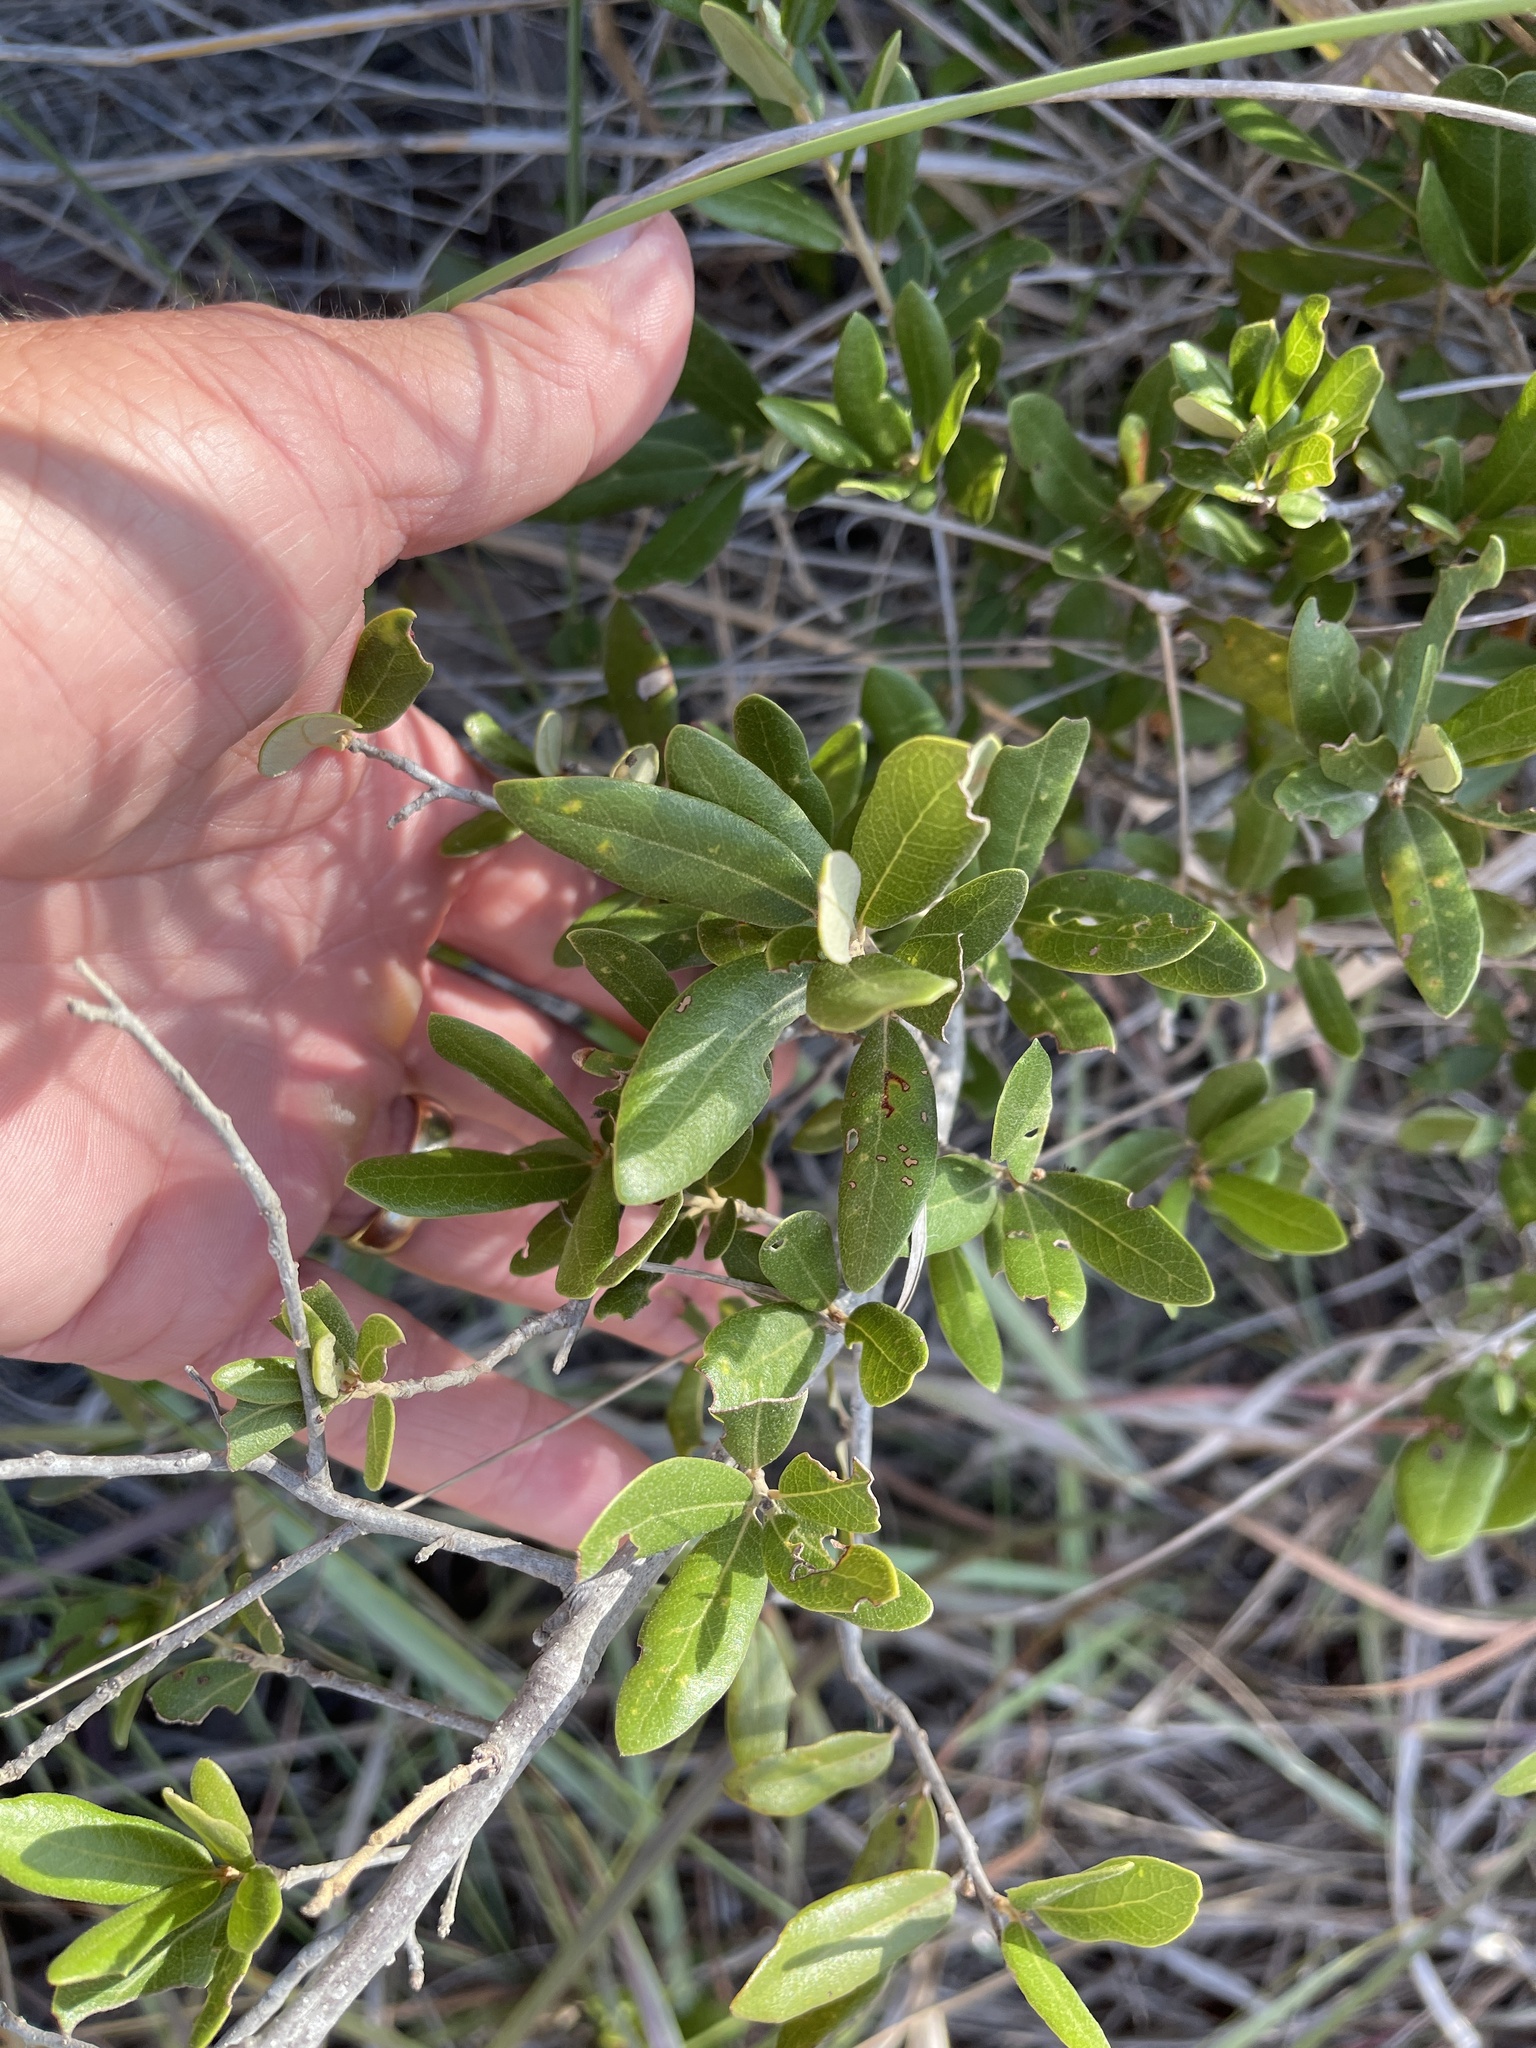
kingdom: Plantae
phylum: Tracheophyta
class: Magnoliopsida
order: Fagales
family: Fagaceae
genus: Quercus
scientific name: Quercus fusiformis
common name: Texas live oak
